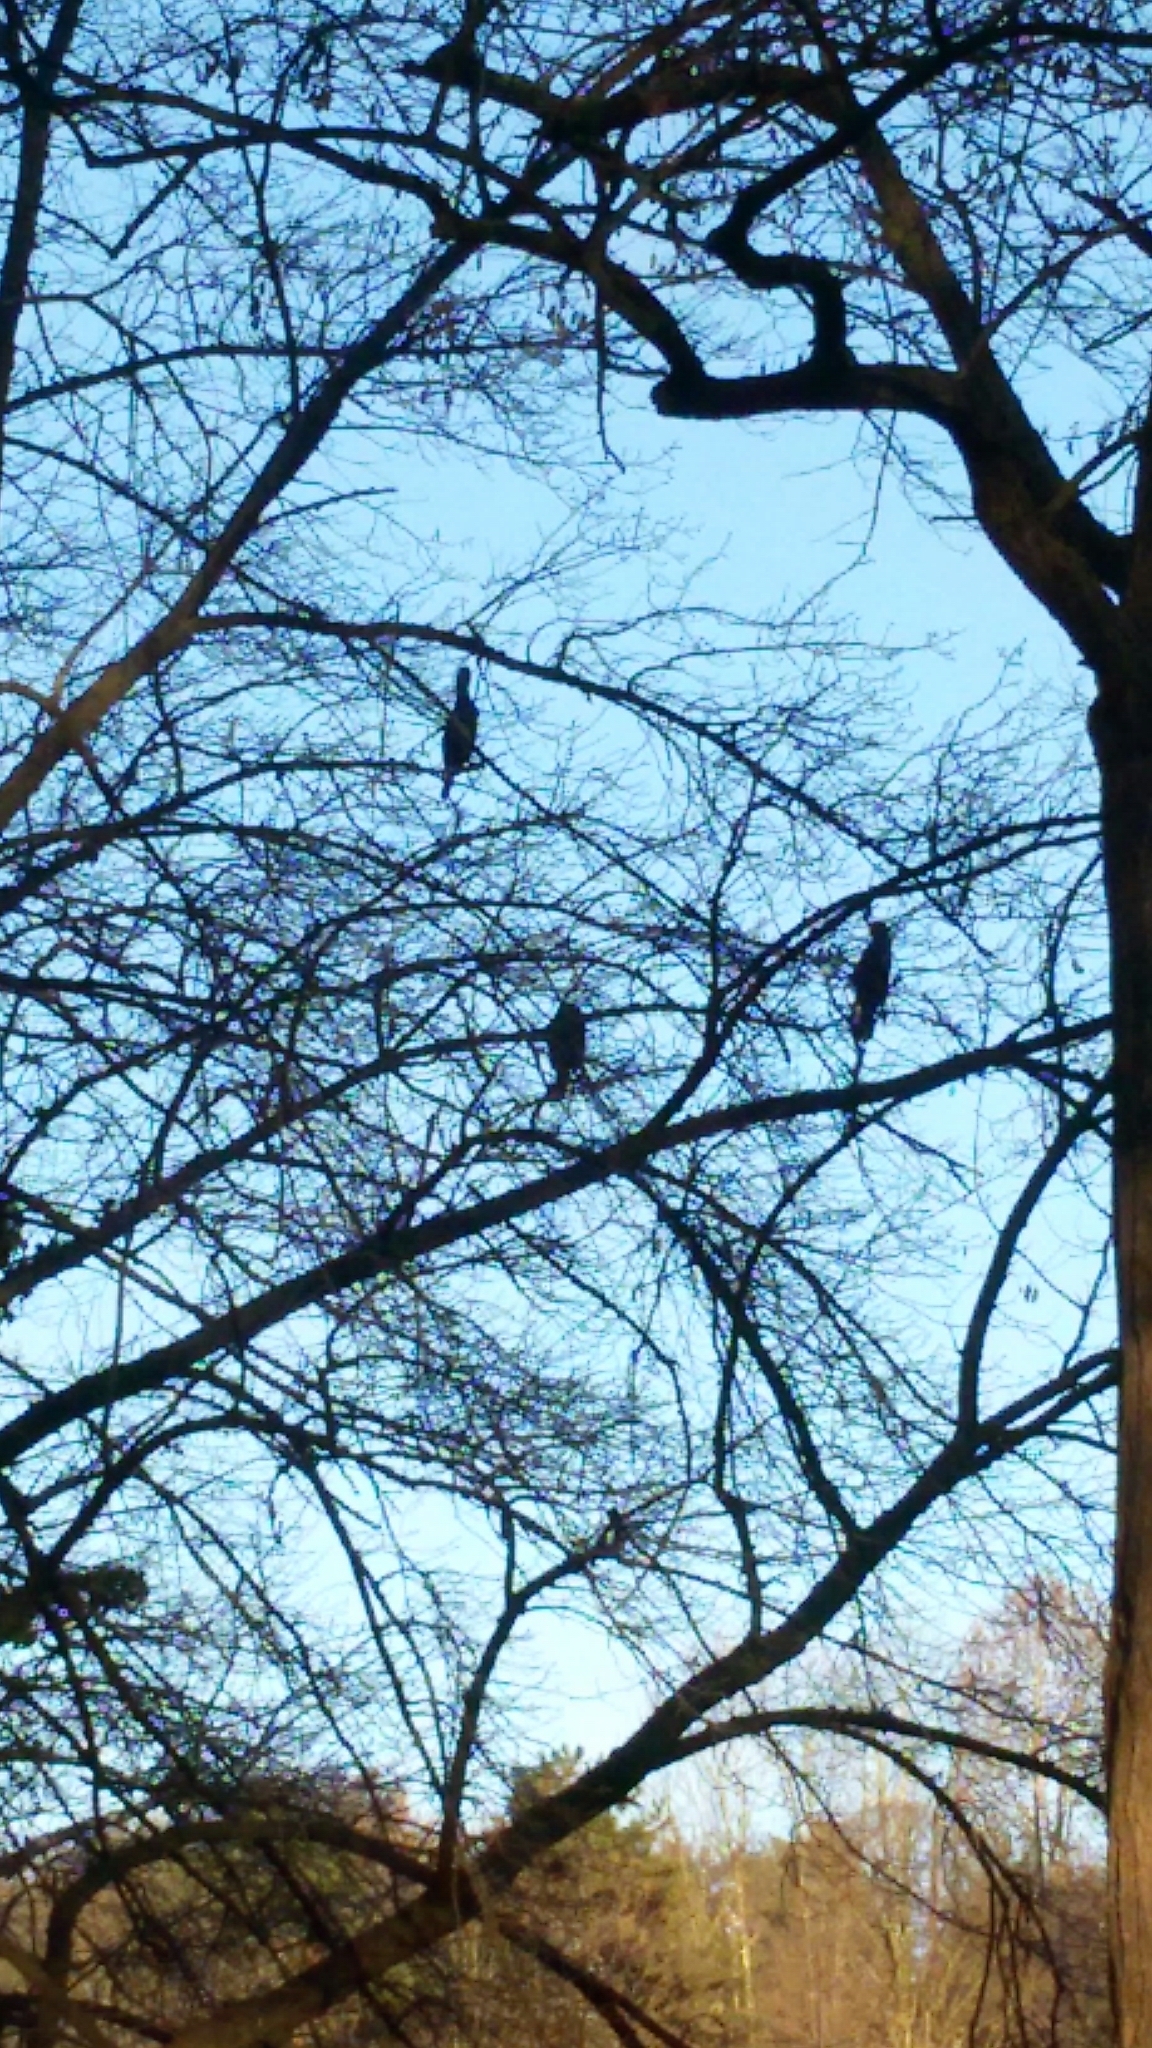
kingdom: Animalia
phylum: Chordata
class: Aves
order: Suliformes
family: Phalacrocoracidae
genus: Phalacrocorax
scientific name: Phalacrocorax carbo
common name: Great cormorant
